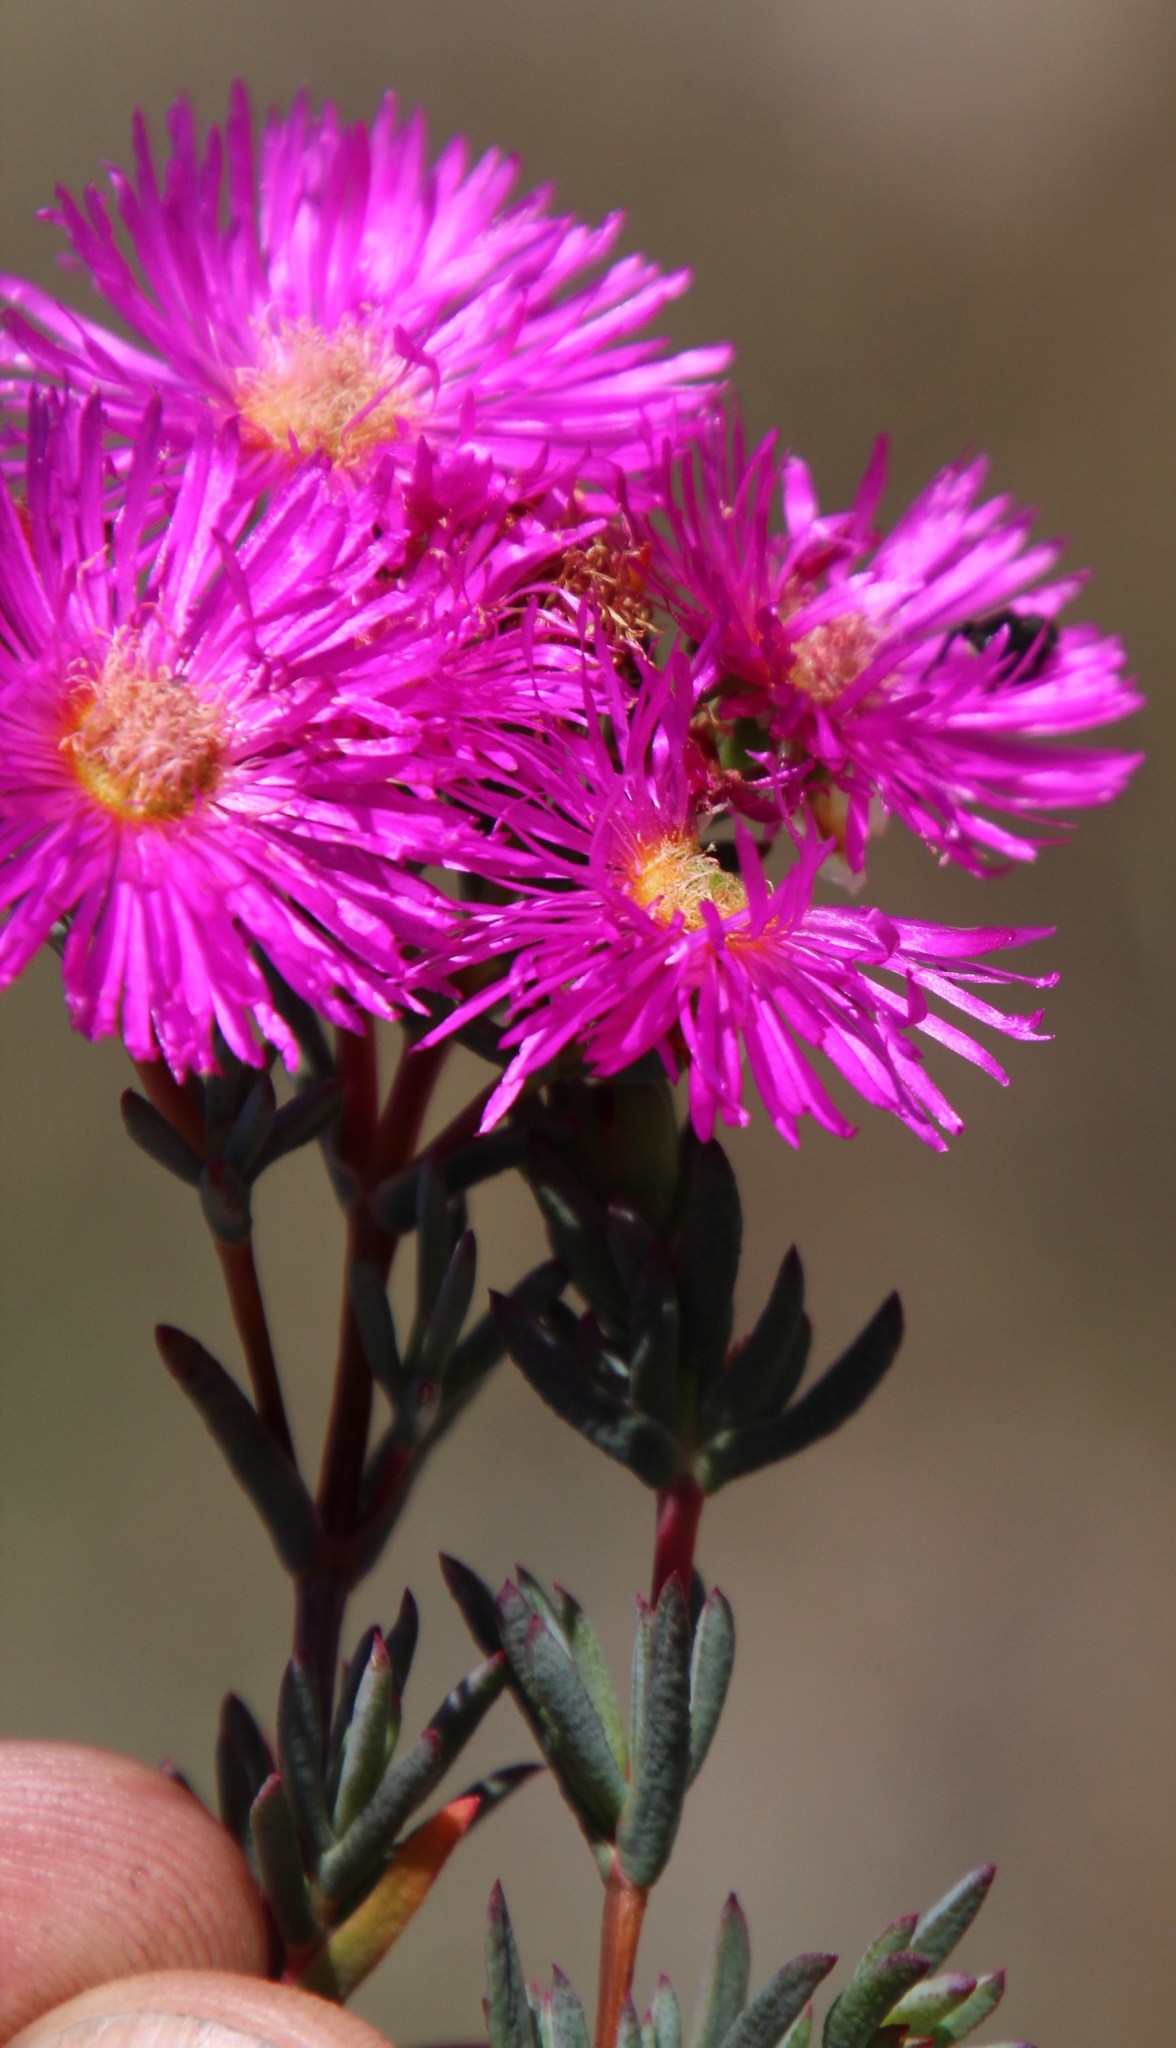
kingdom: Plantae
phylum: Tracheophyta
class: Magnoliopsida
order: Caryophyllales
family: Aizoaceae
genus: Lampranthus
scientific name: Lampranthus stenopetalus
